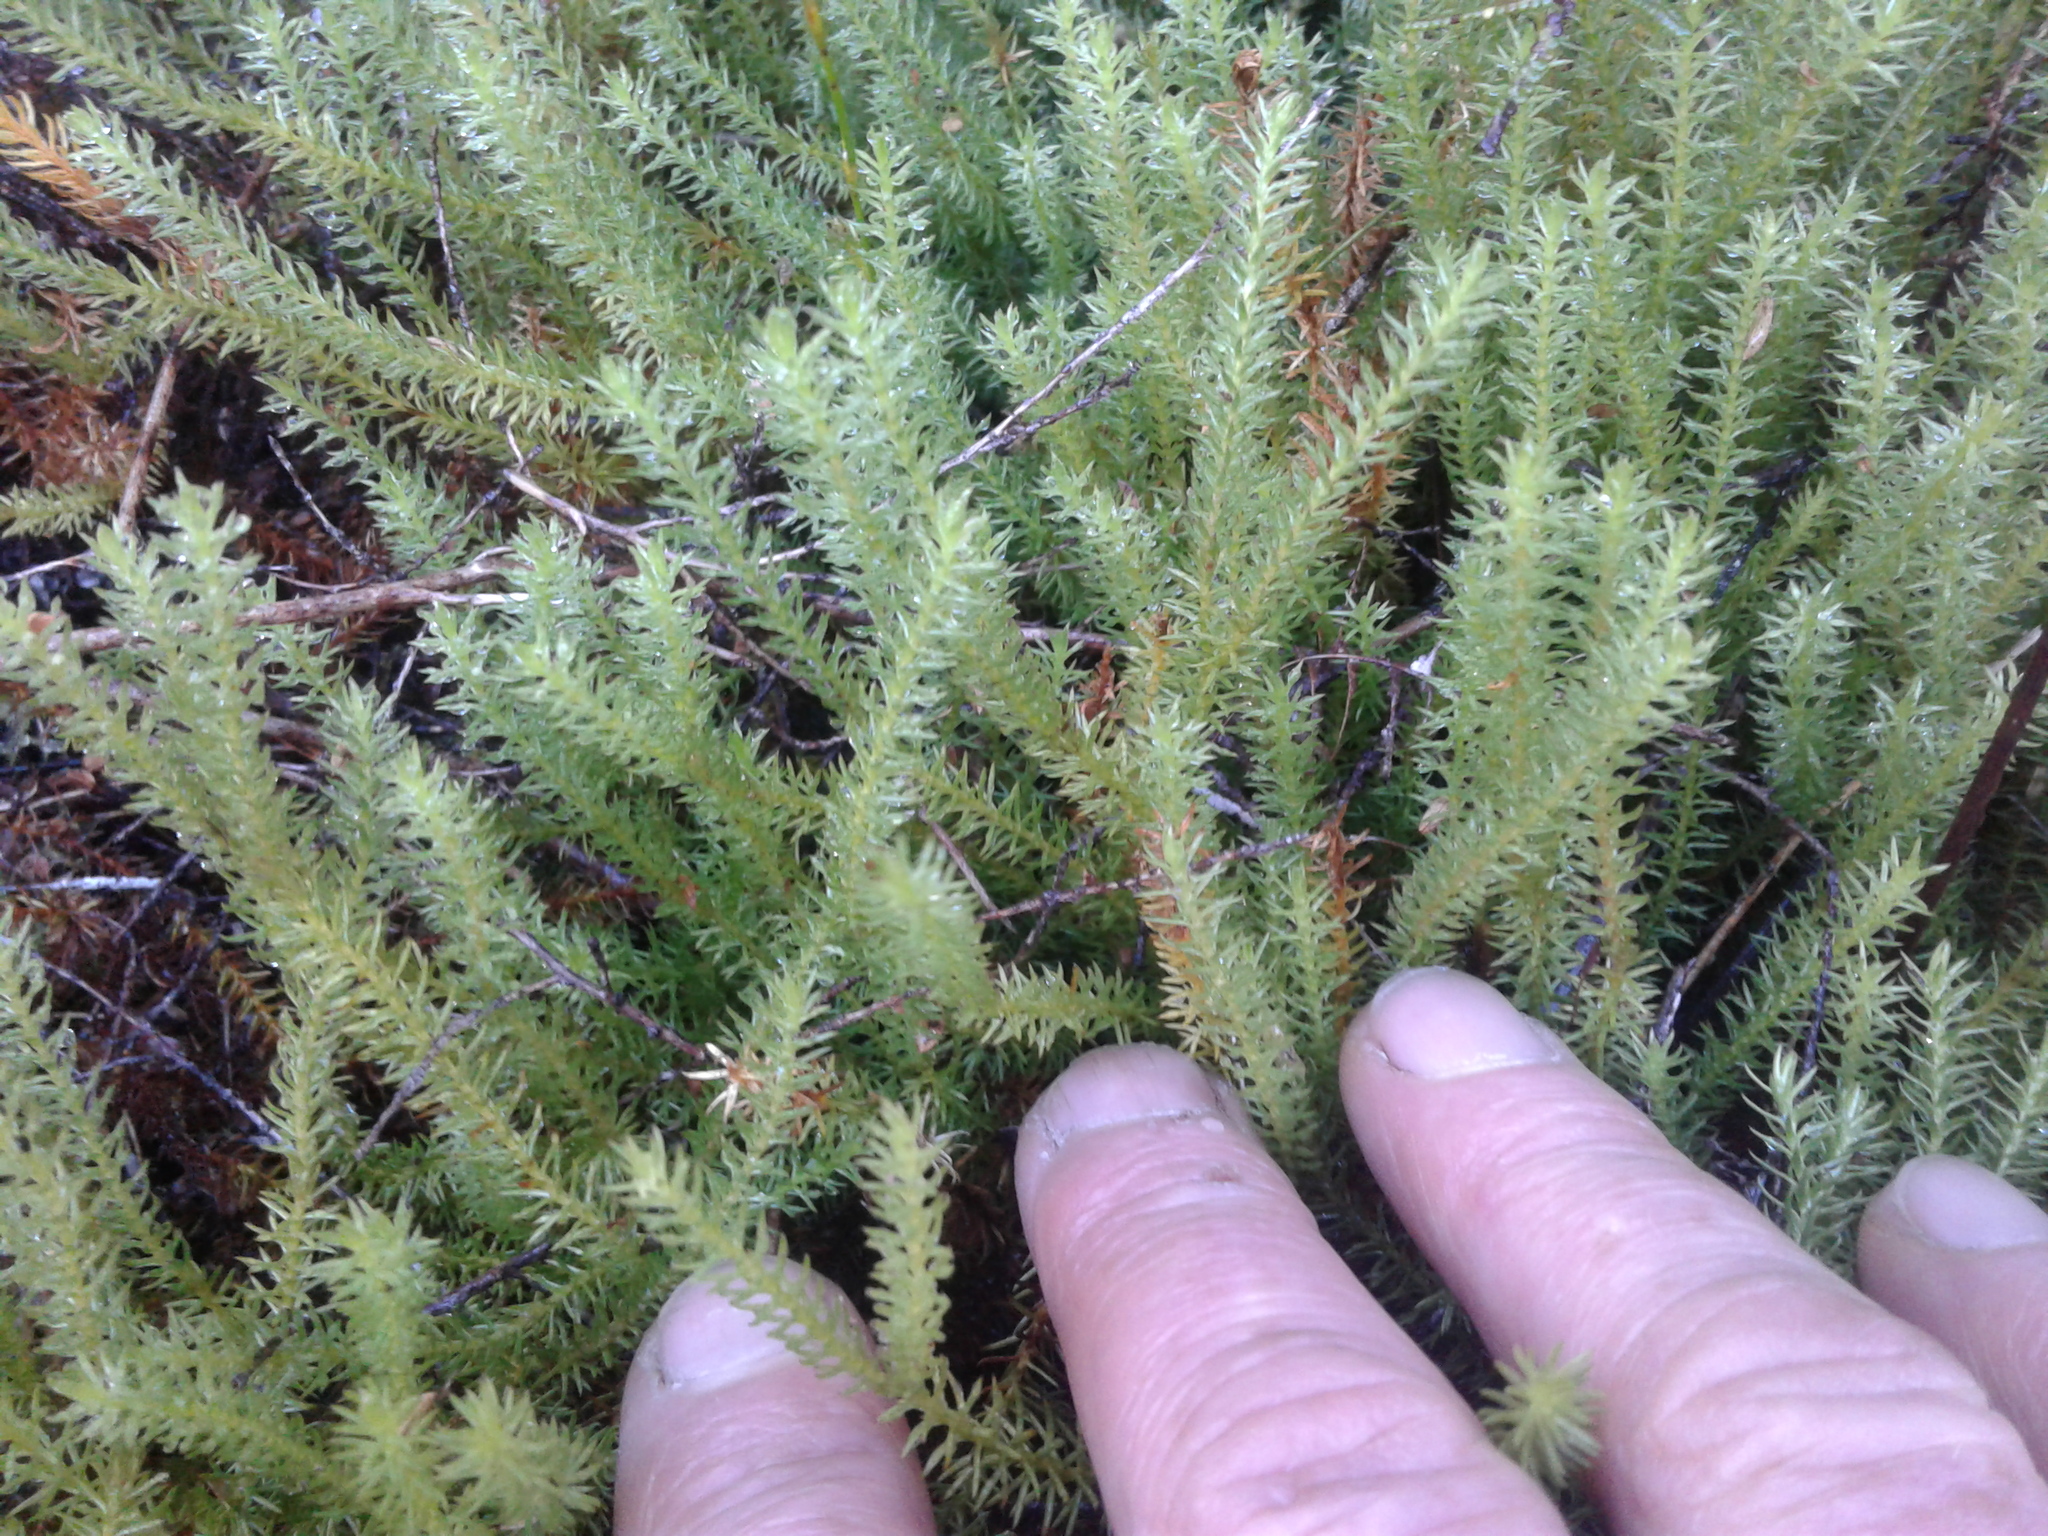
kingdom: Plantae
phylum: Tracheophyta
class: Lycopodiopsida
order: Lycopodiales
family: Lycopodiaceae
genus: Lateristachys
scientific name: Lateristachys lateralis
